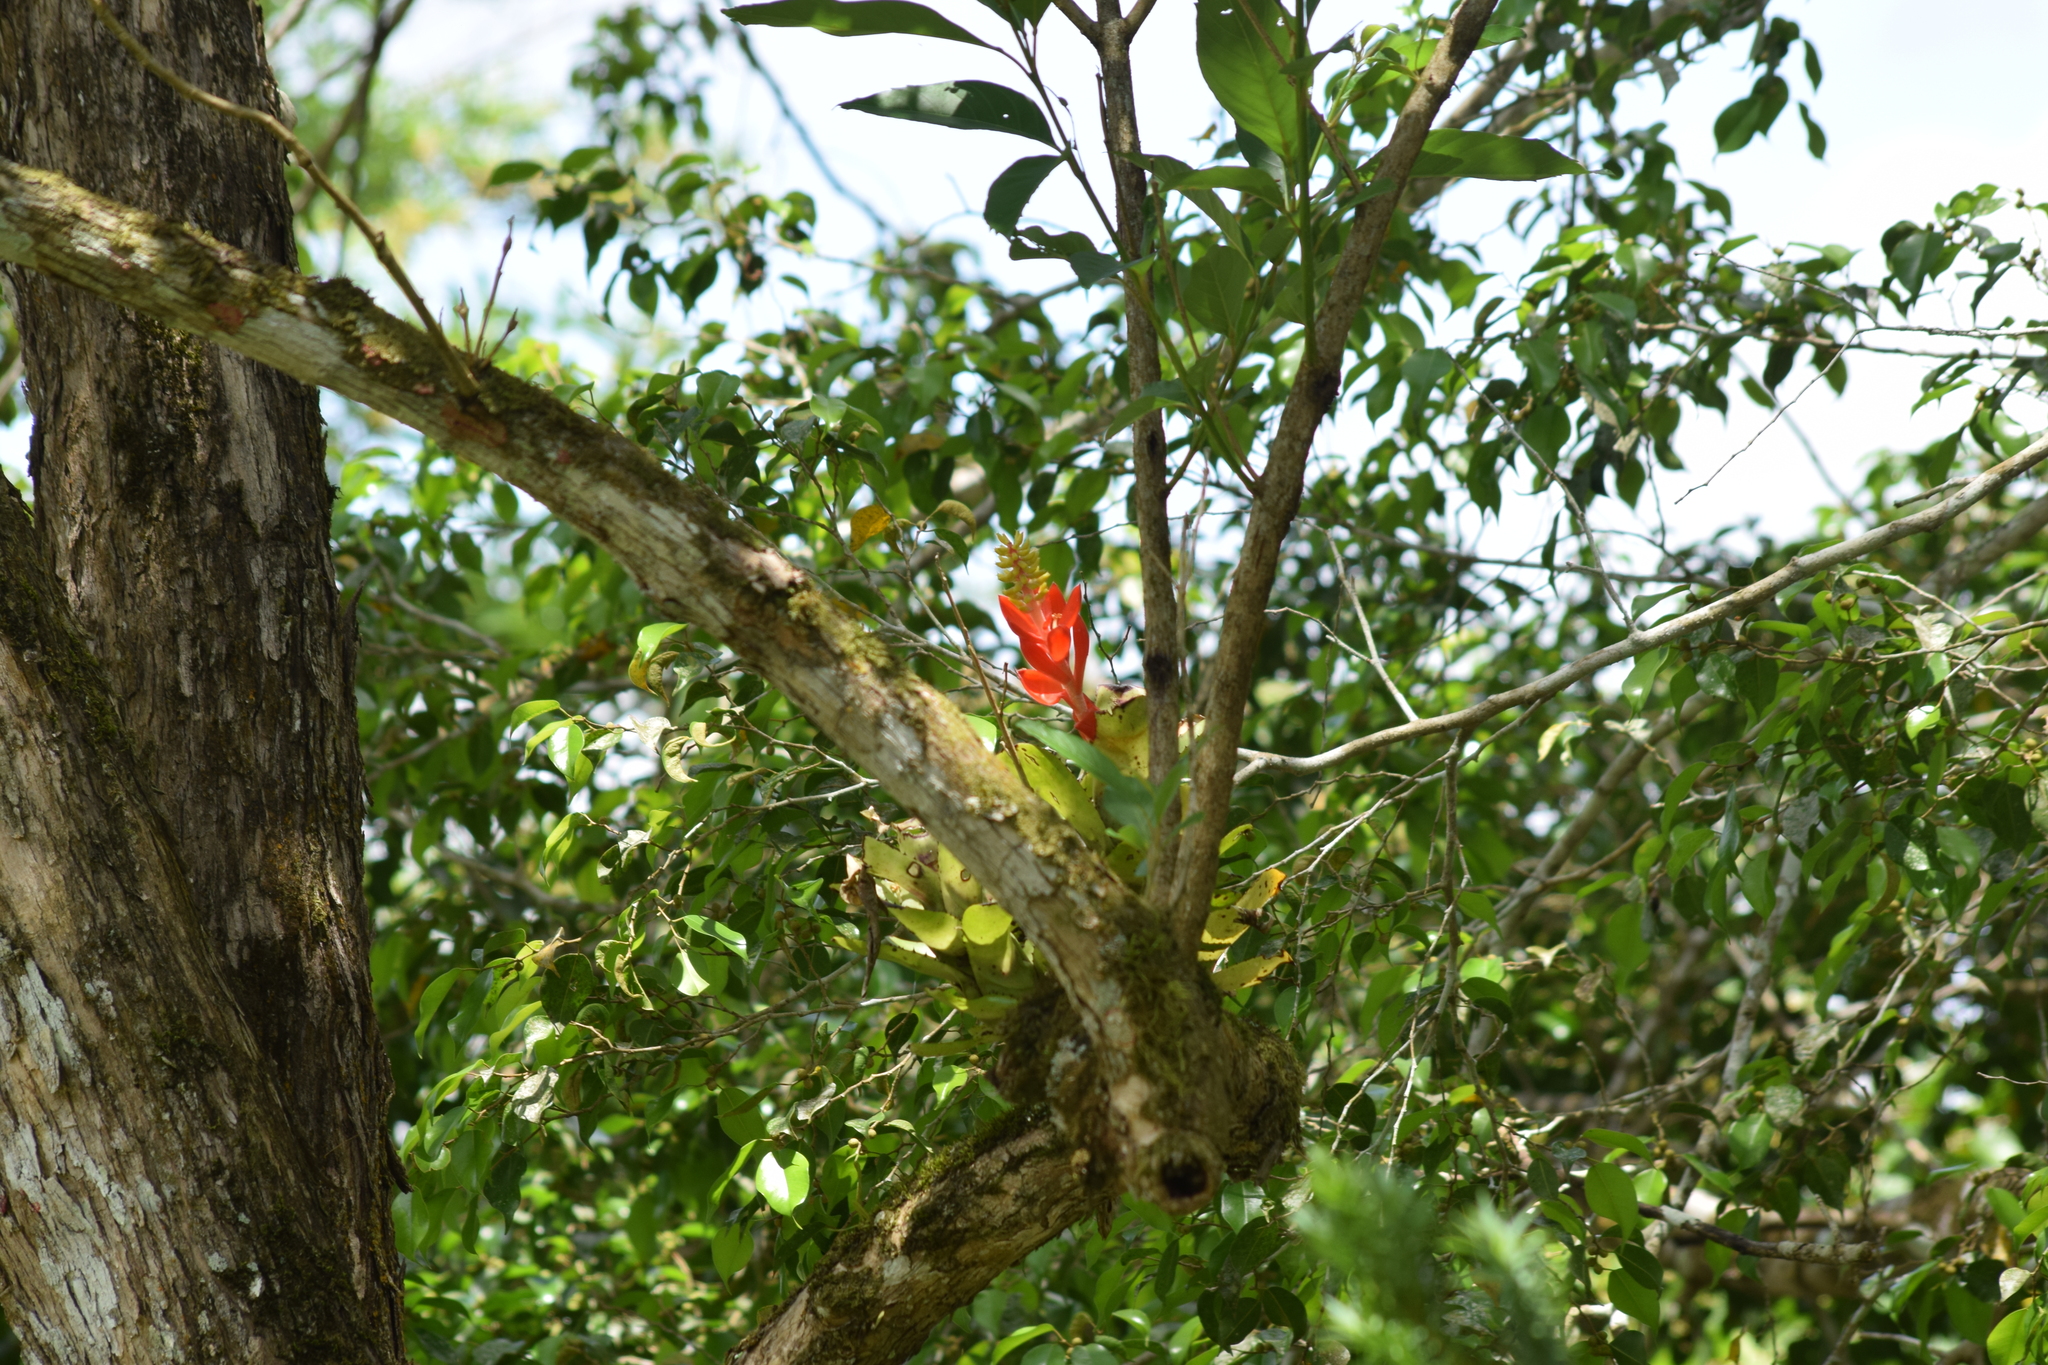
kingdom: Plantae
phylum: Tracheophyta
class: Liliopsida
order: Poales
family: Bromeliaceae
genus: Aechmea
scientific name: Aechmea nudicaulis
